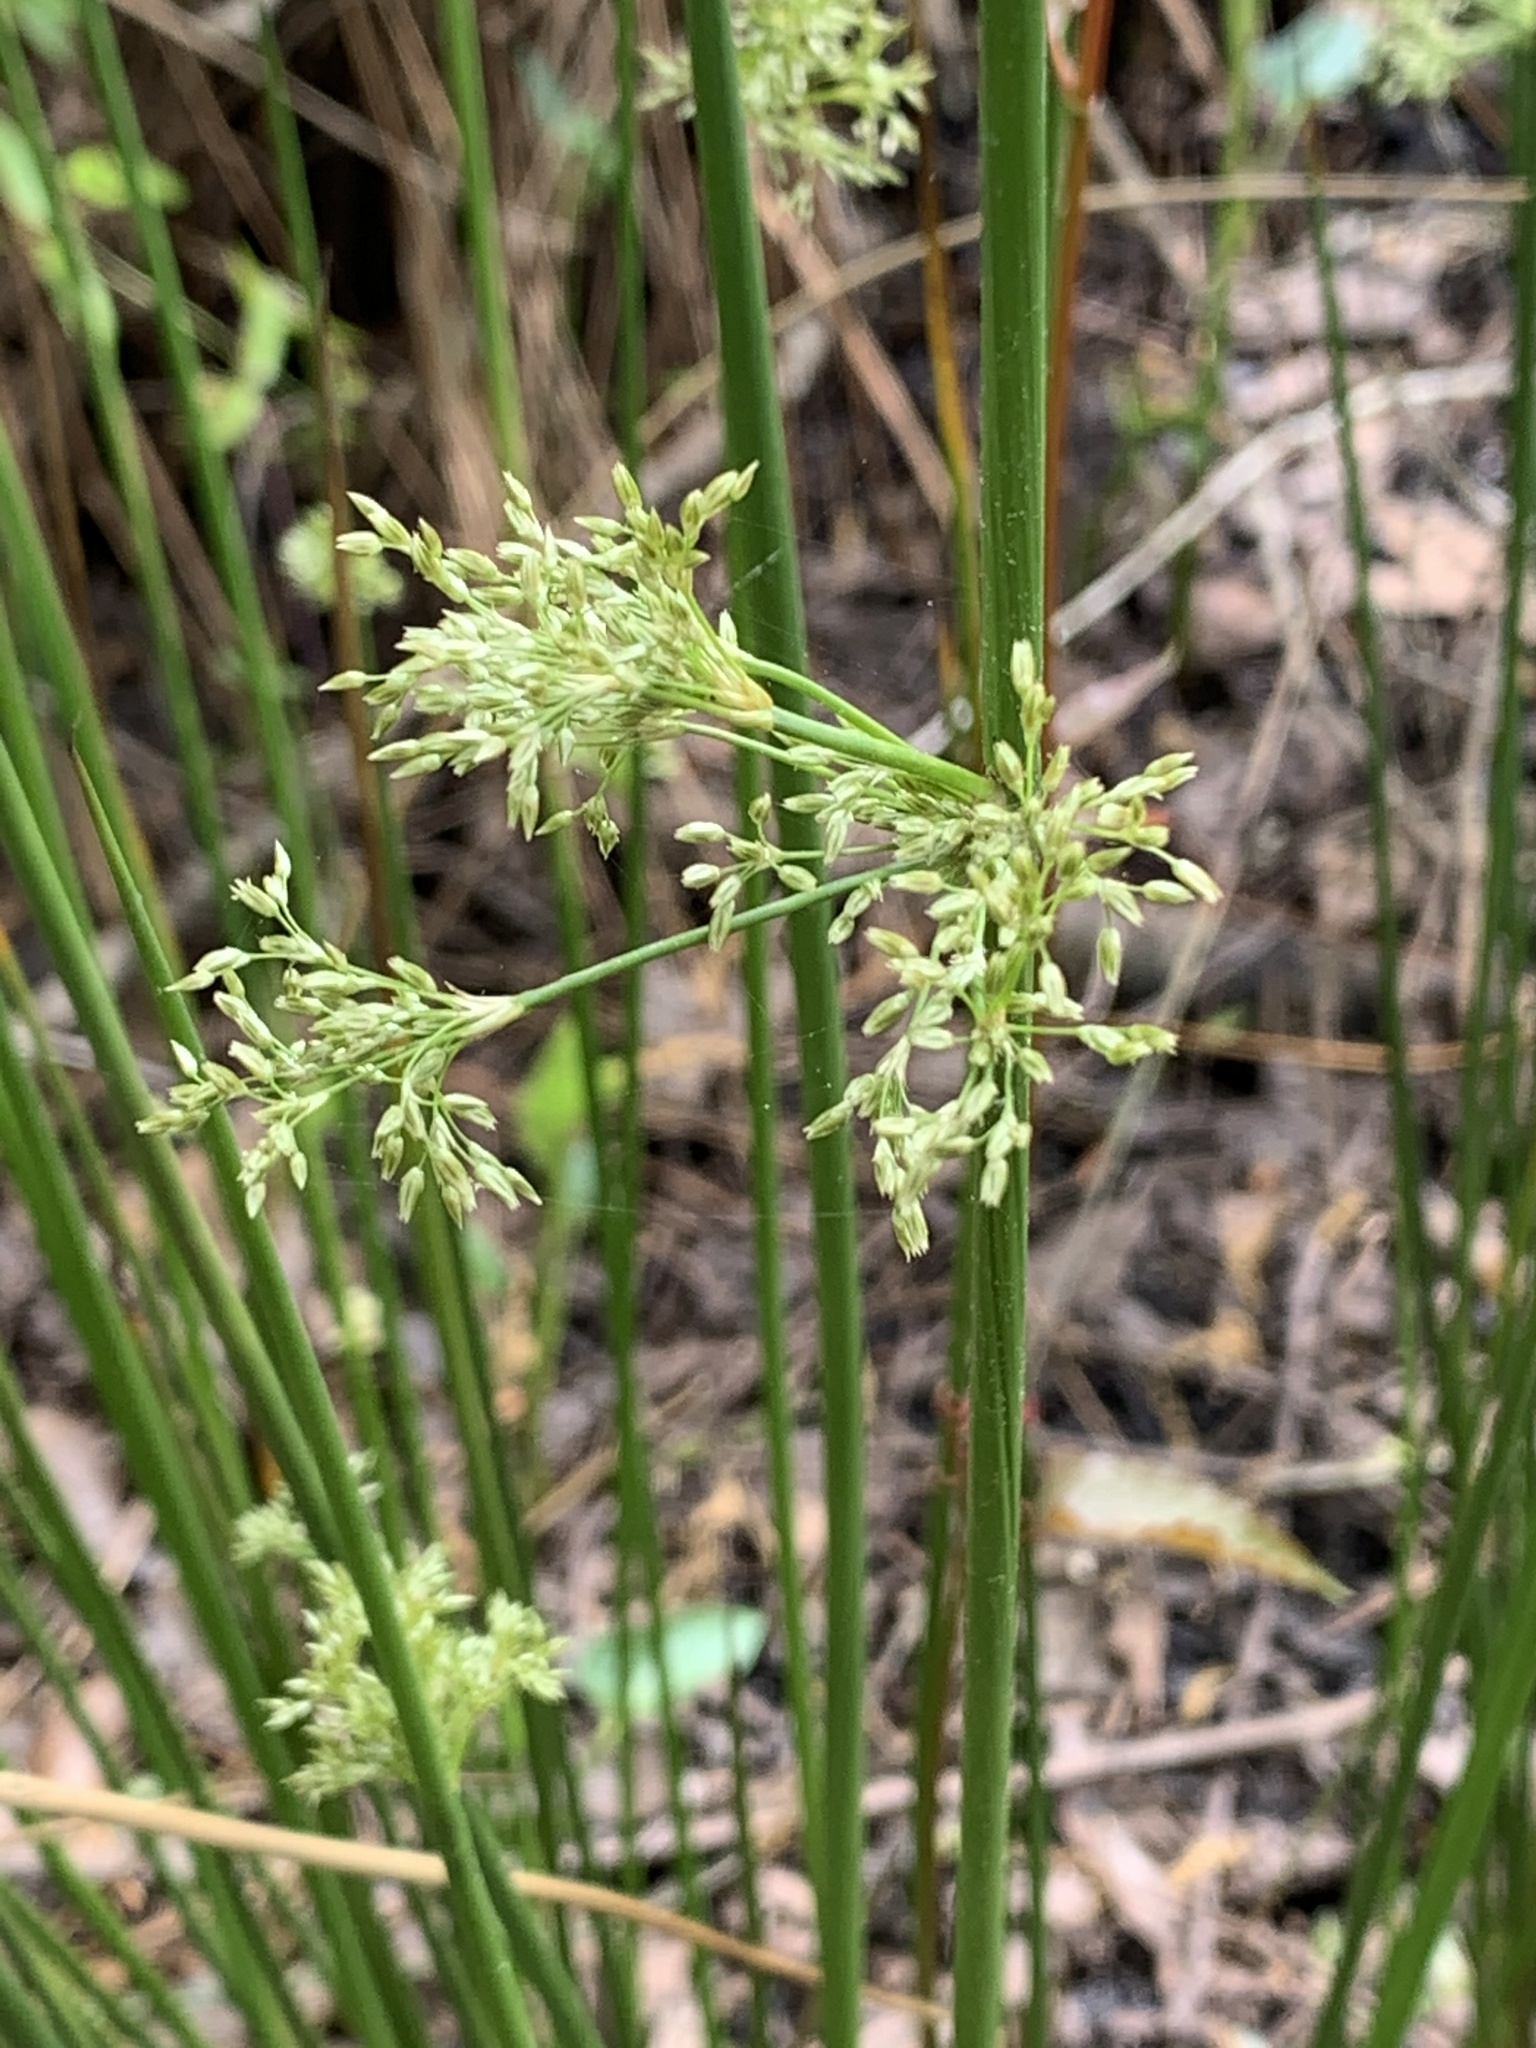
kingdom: Plantae
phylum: Tracheophyta
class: Liliopsida
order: Poales
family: Juncaceae
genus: Juncus
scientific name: Juncus effusus
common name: Soft rush
